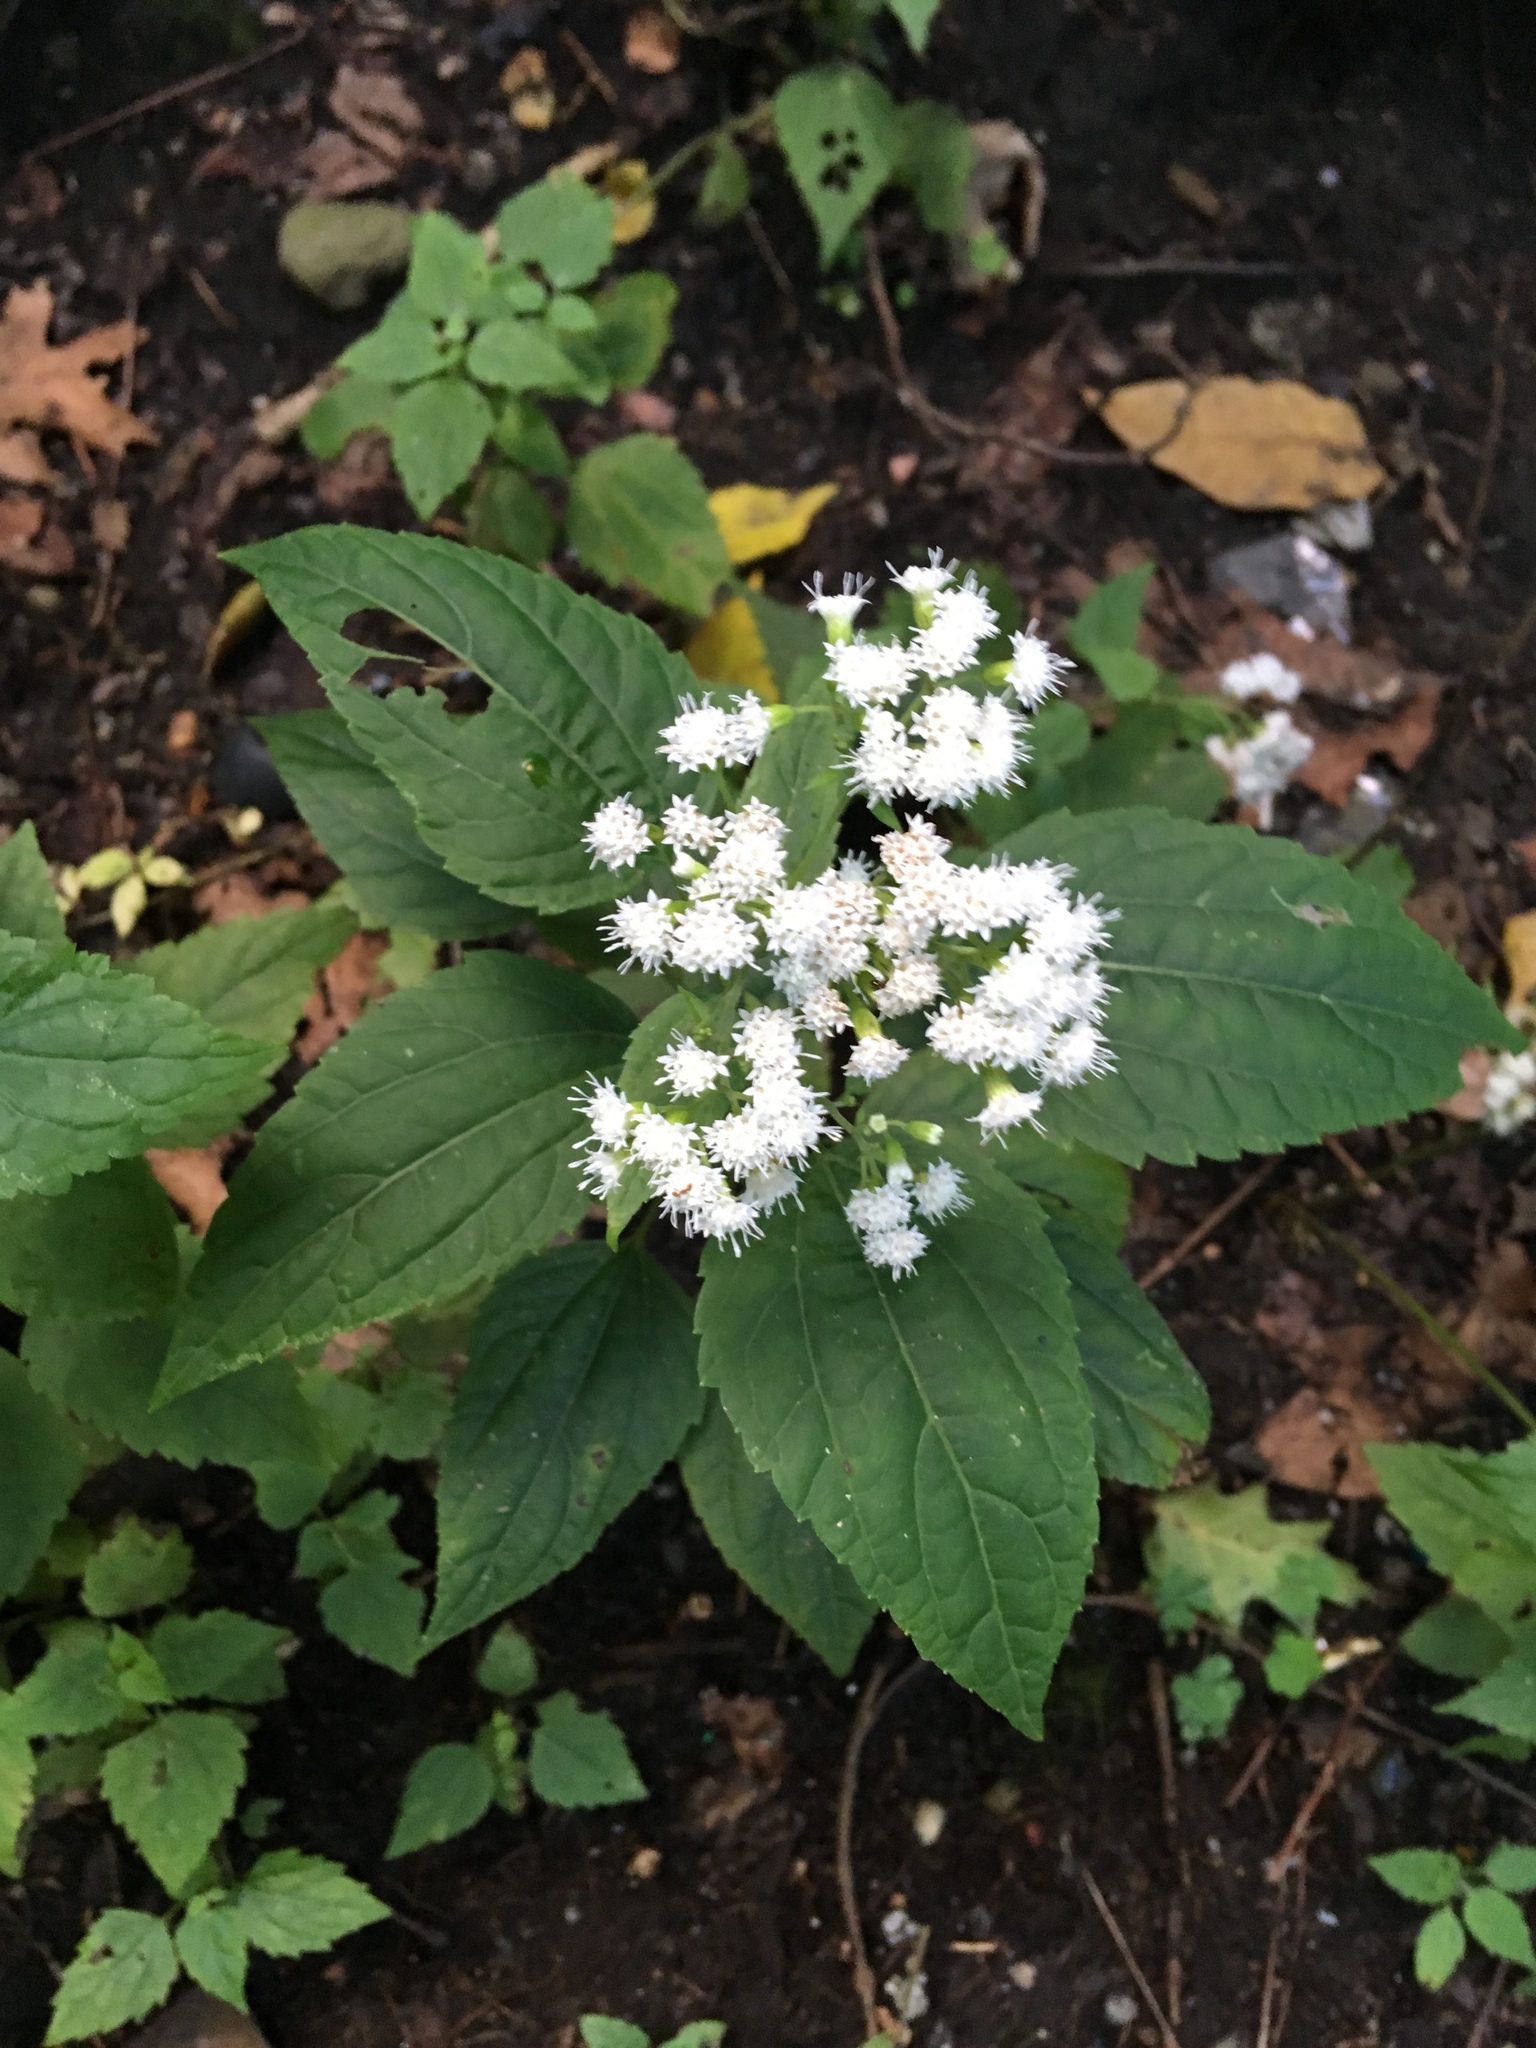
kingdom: Plantae
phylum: Tracheophyta
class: Magnoliopsida
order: Asterales
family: Asteraceae
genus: Ageratina
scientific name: Ageratina altissima
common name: White snakeroot
